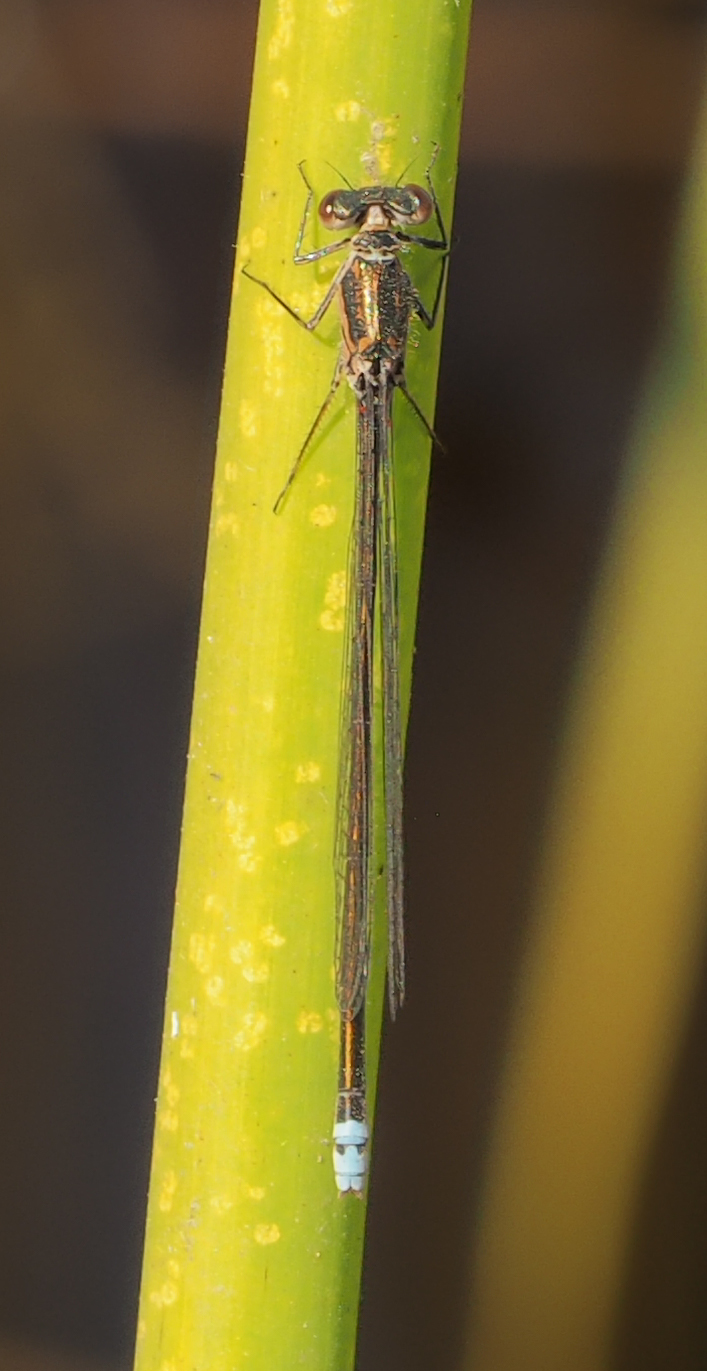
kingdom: Animalia
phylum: Arthropoda
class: Insecta
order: Odonata
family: Coenagrionidae
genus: Pseudagrion
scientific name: Pseudagrion deningi
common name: Dening's sprite
